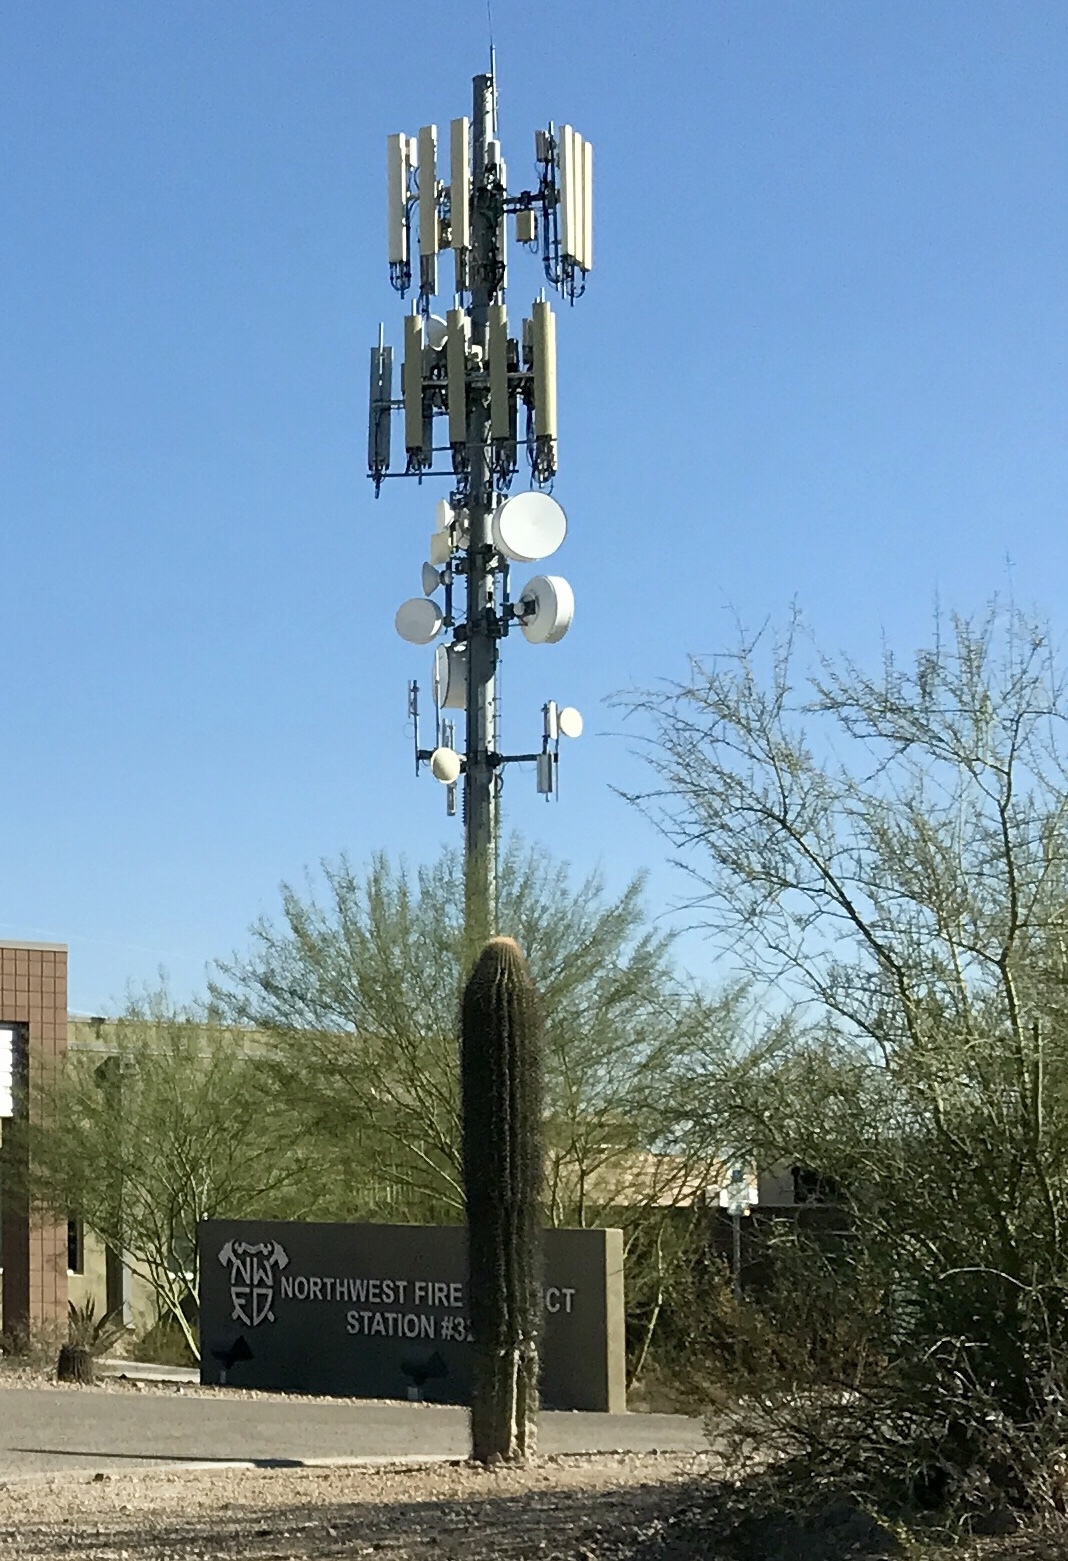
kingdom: Plantae
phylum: Tracheophyta
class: Magnoliopsida
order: Caryophyllales
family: Cactaceae
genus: Carnegiea
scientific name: Carnegiea gigantea
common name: Saguaro
